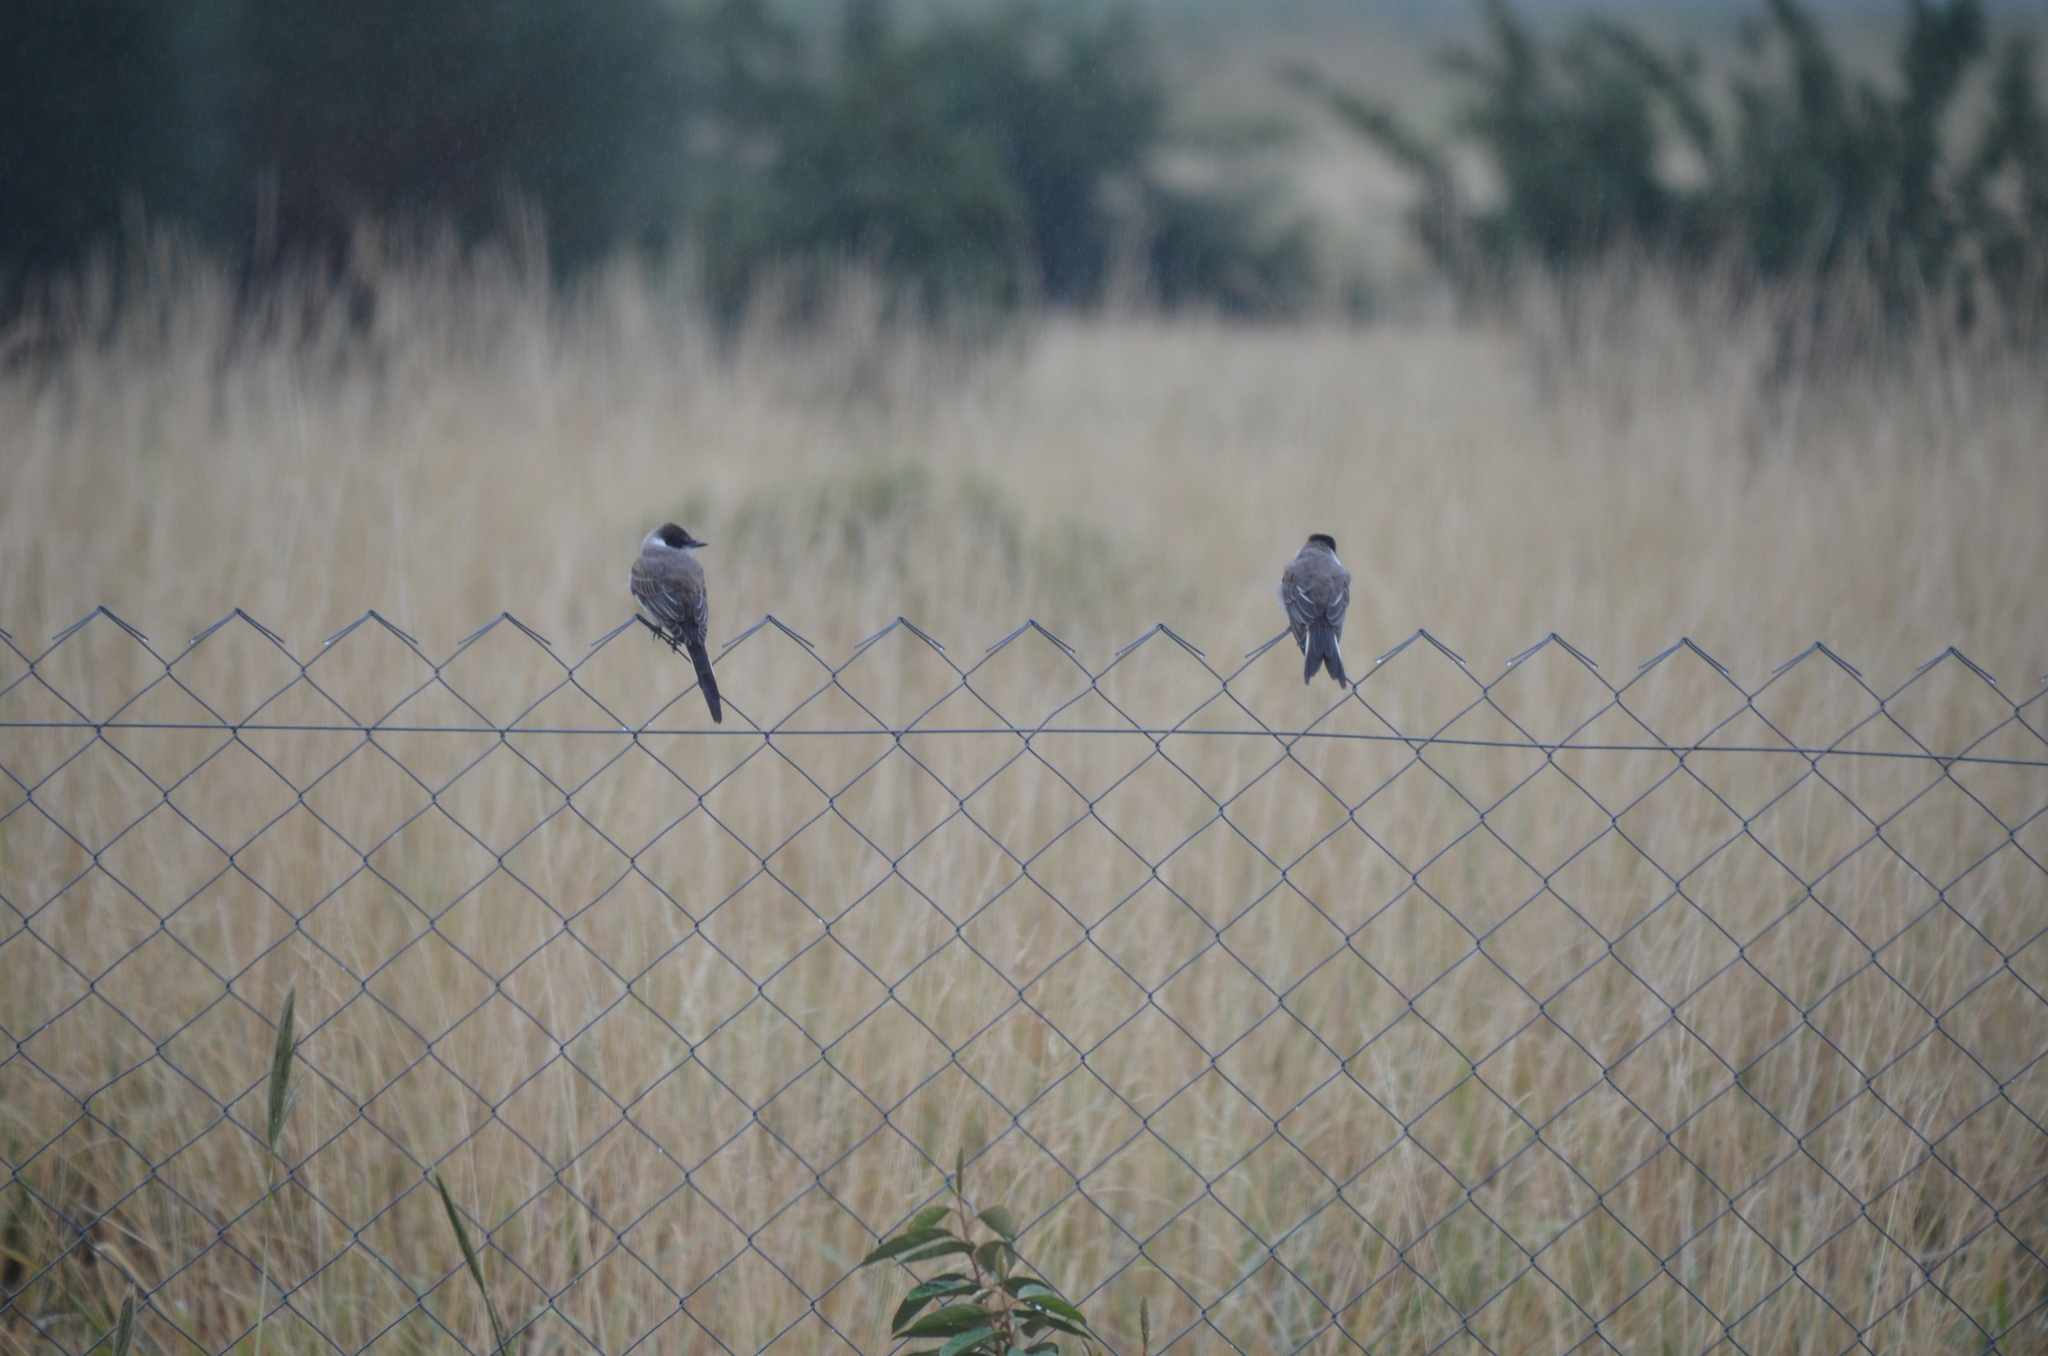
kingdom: Animalia
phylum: Chordata
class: Aves
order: Passeriformes
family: Tyrannidae
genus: Tyrannus
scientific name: Tyrannus savana
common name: Fork-tailed flycatcher
